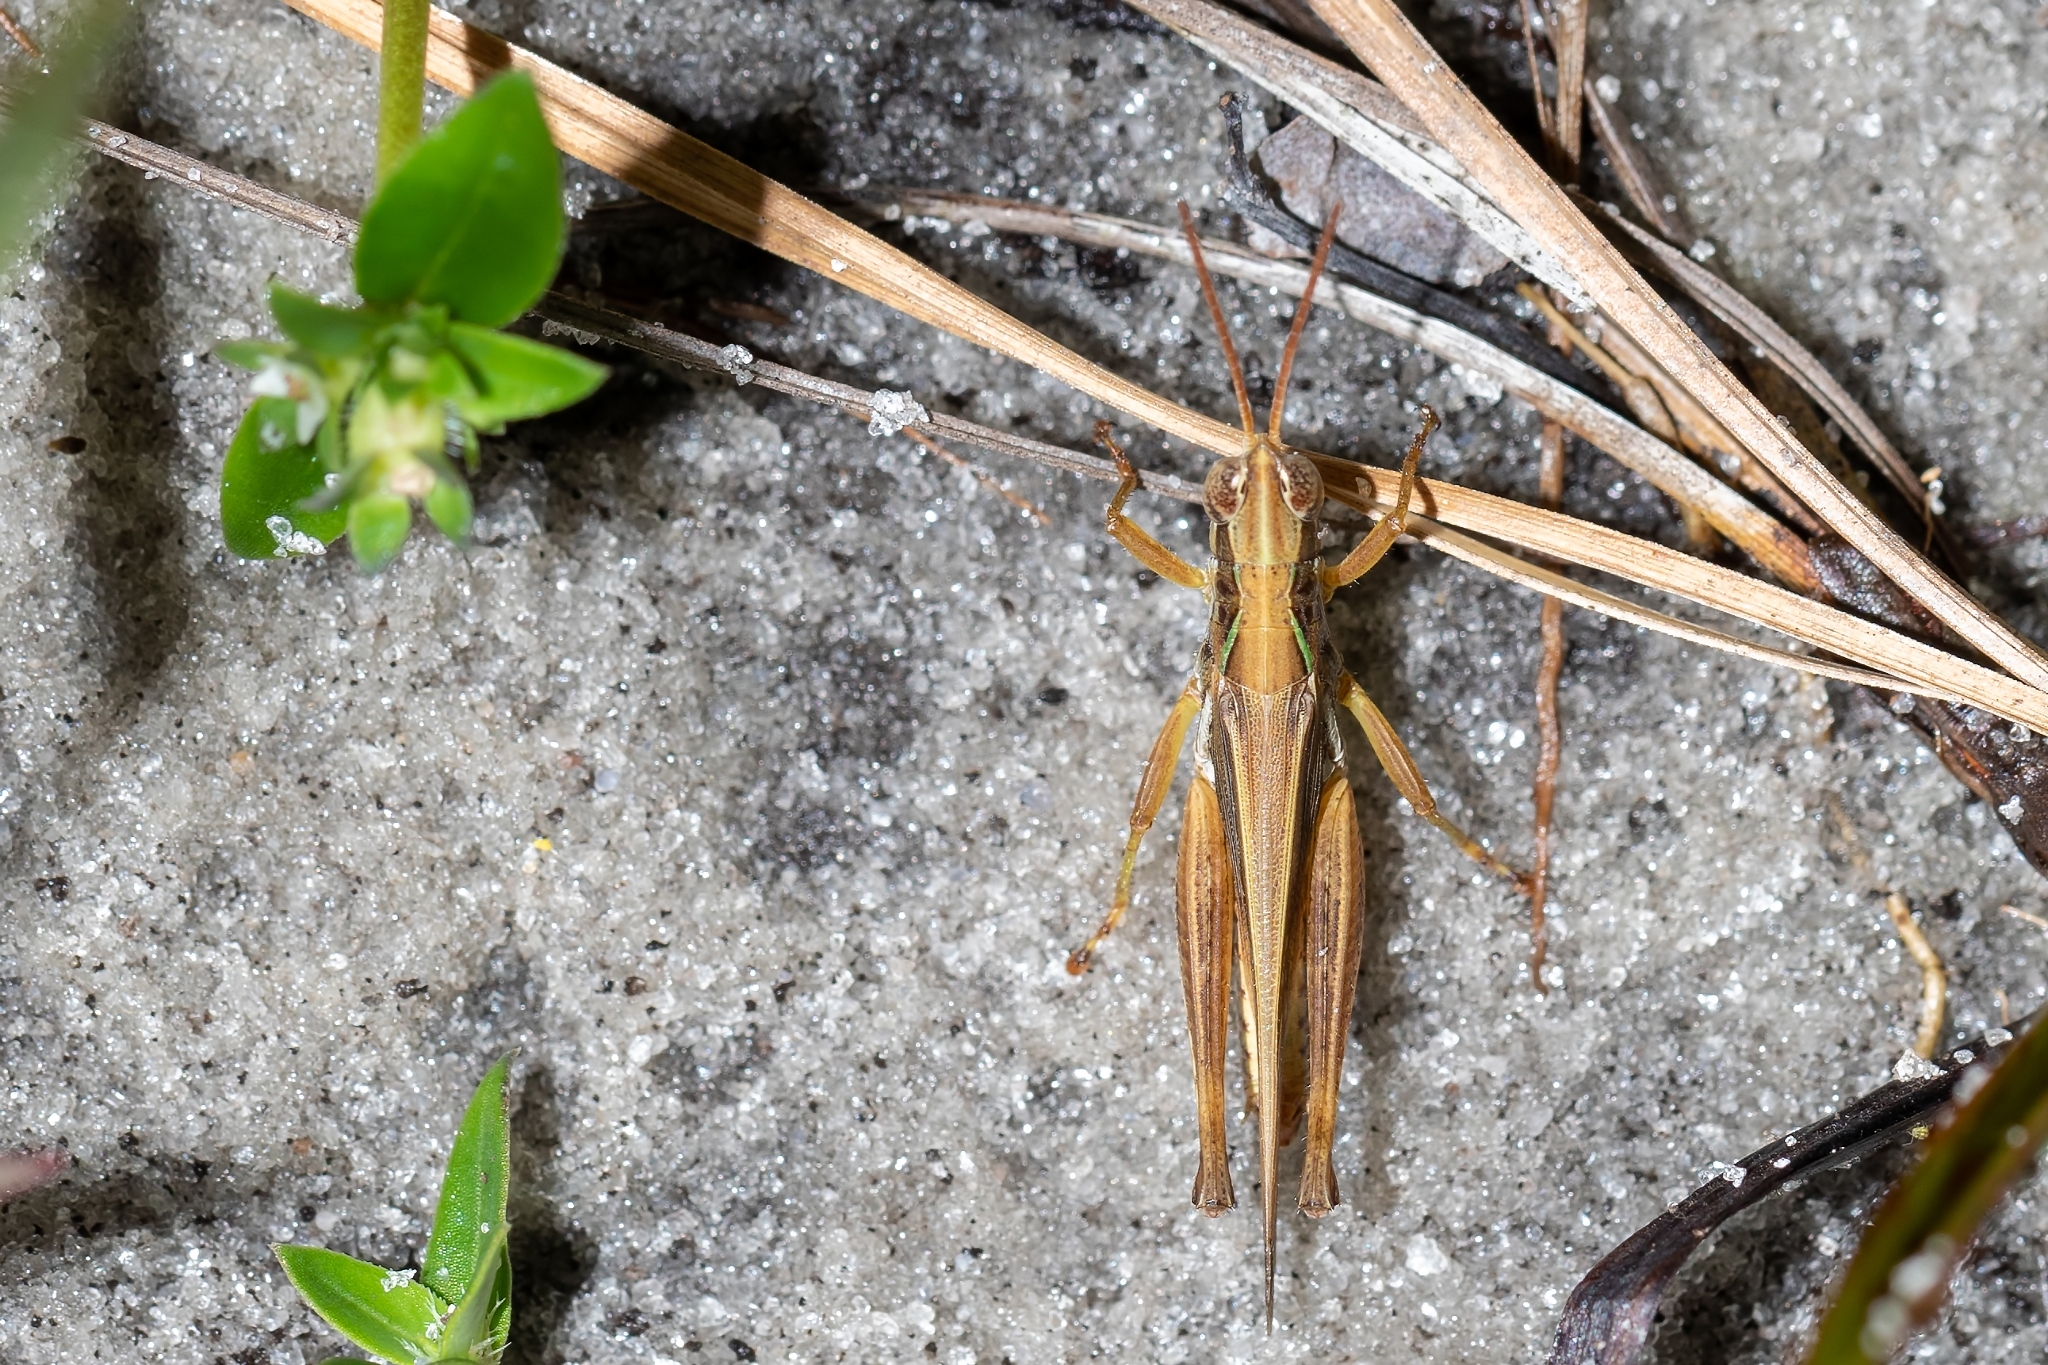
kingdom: Animalia
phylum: Arthropoda
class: Insecta
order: Orthoptera
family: Acrididae
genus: Orphulella
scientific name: Orphulella pelidna
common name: Spotted-wing grasshopper
